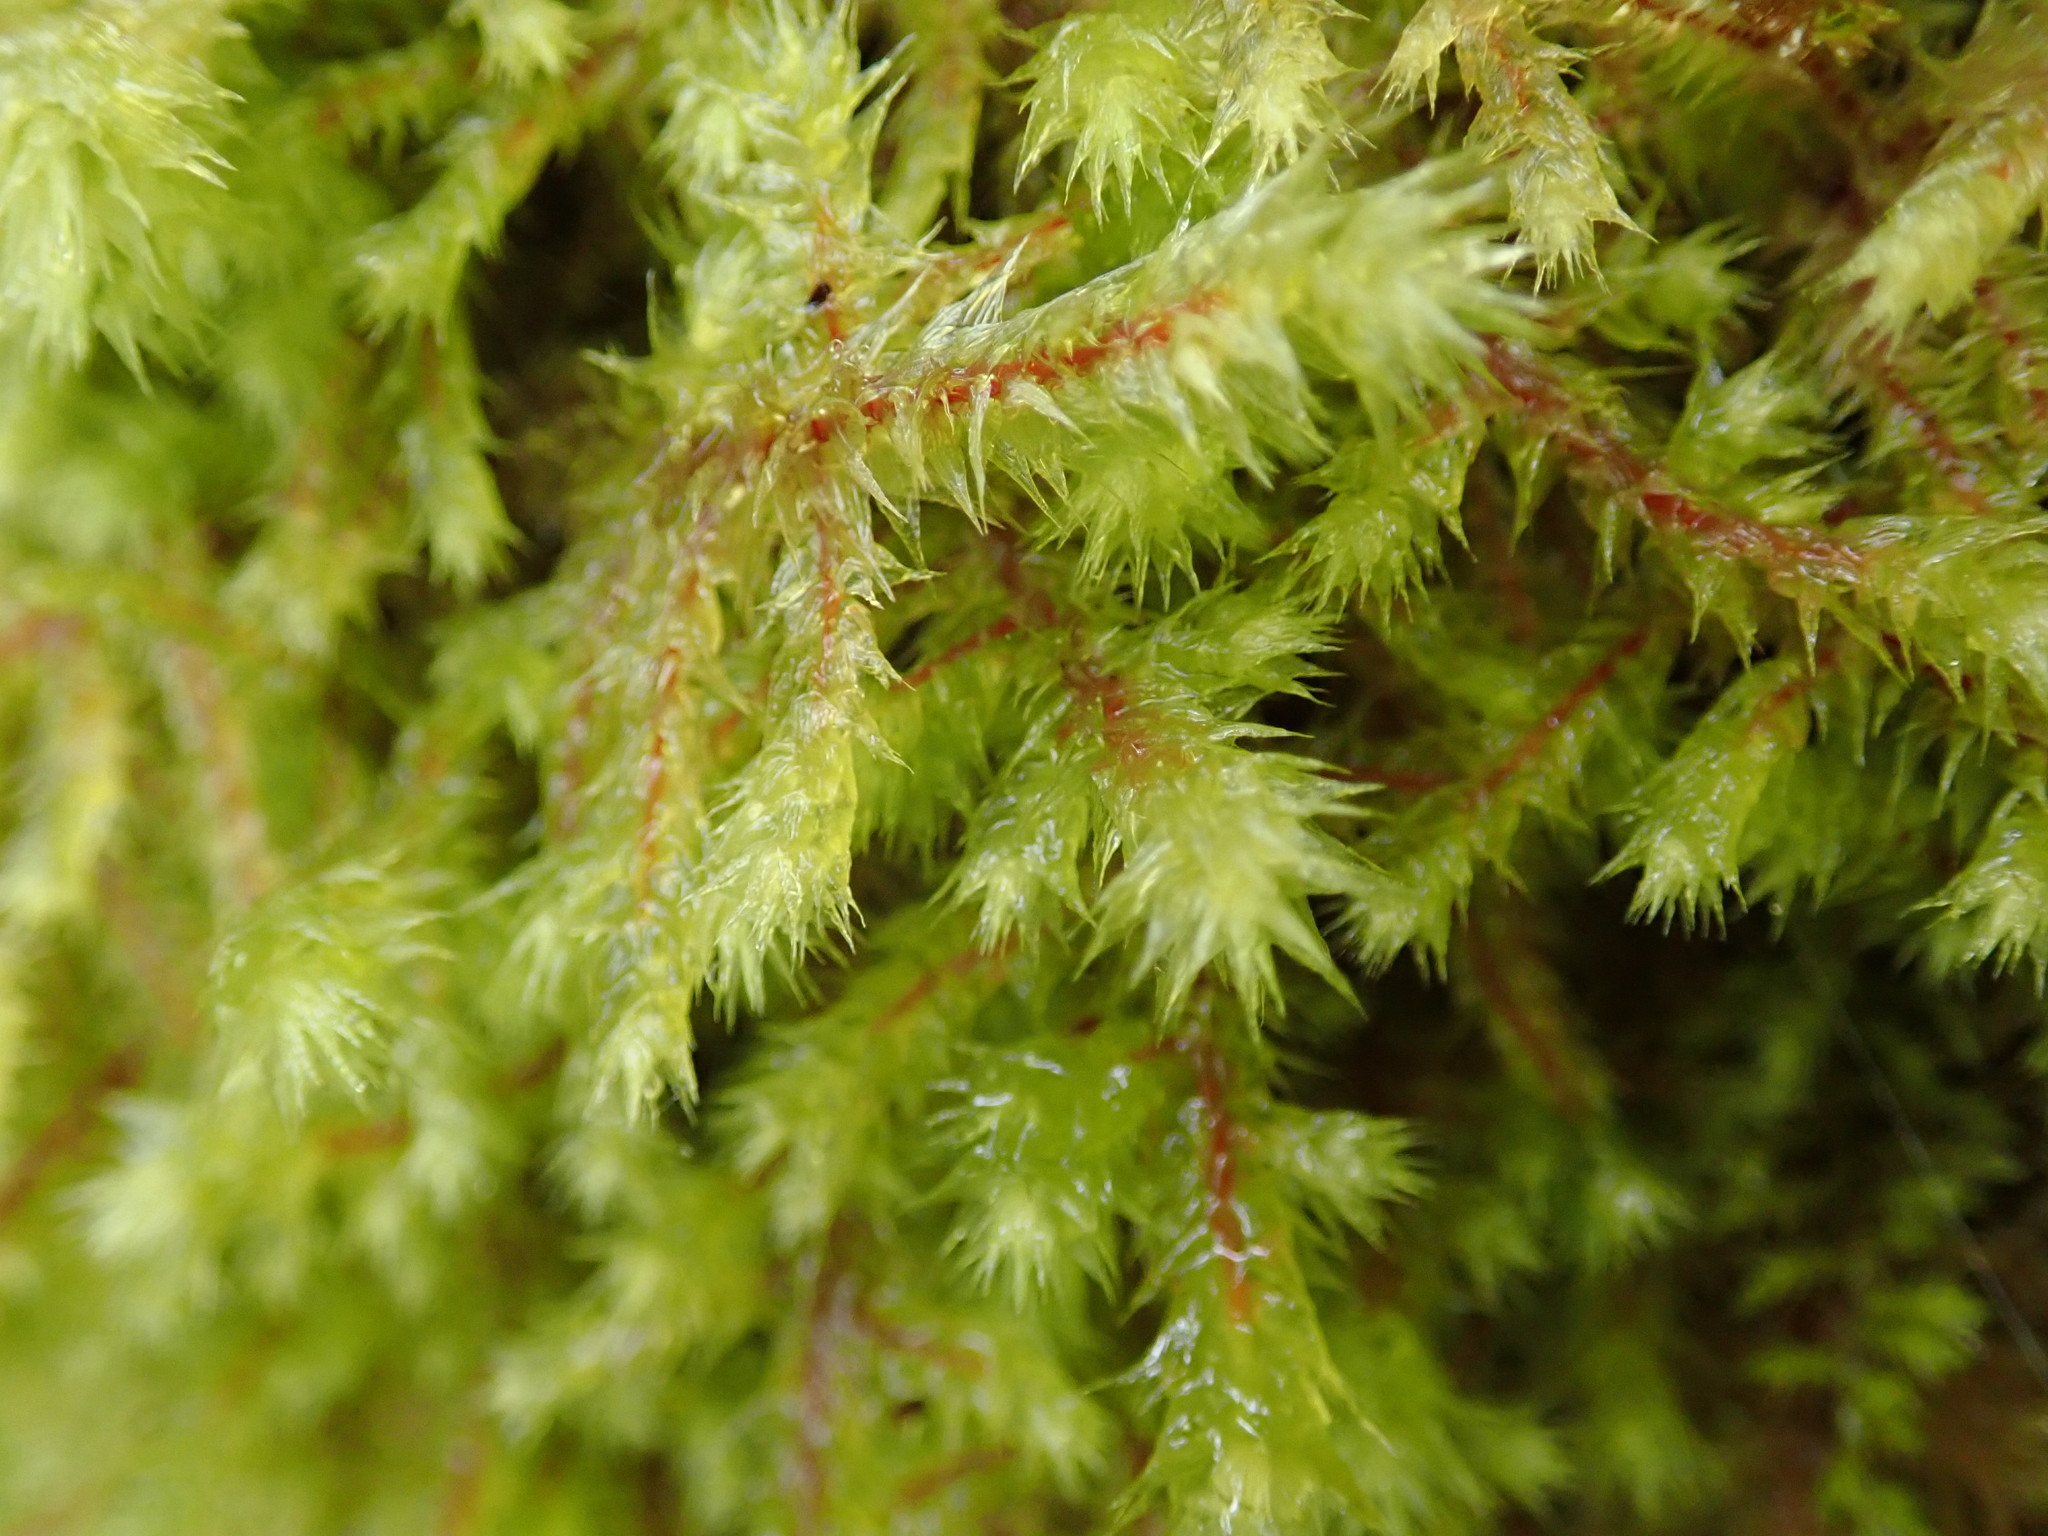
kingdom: Plantae
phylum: Bryophyta
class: Bryopsida
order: Hypnales
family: Hylocomiaceae
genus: Hylocomiadelphus
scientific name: Hylocomiadelphus triquetrus
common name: Rough goose neck moss
